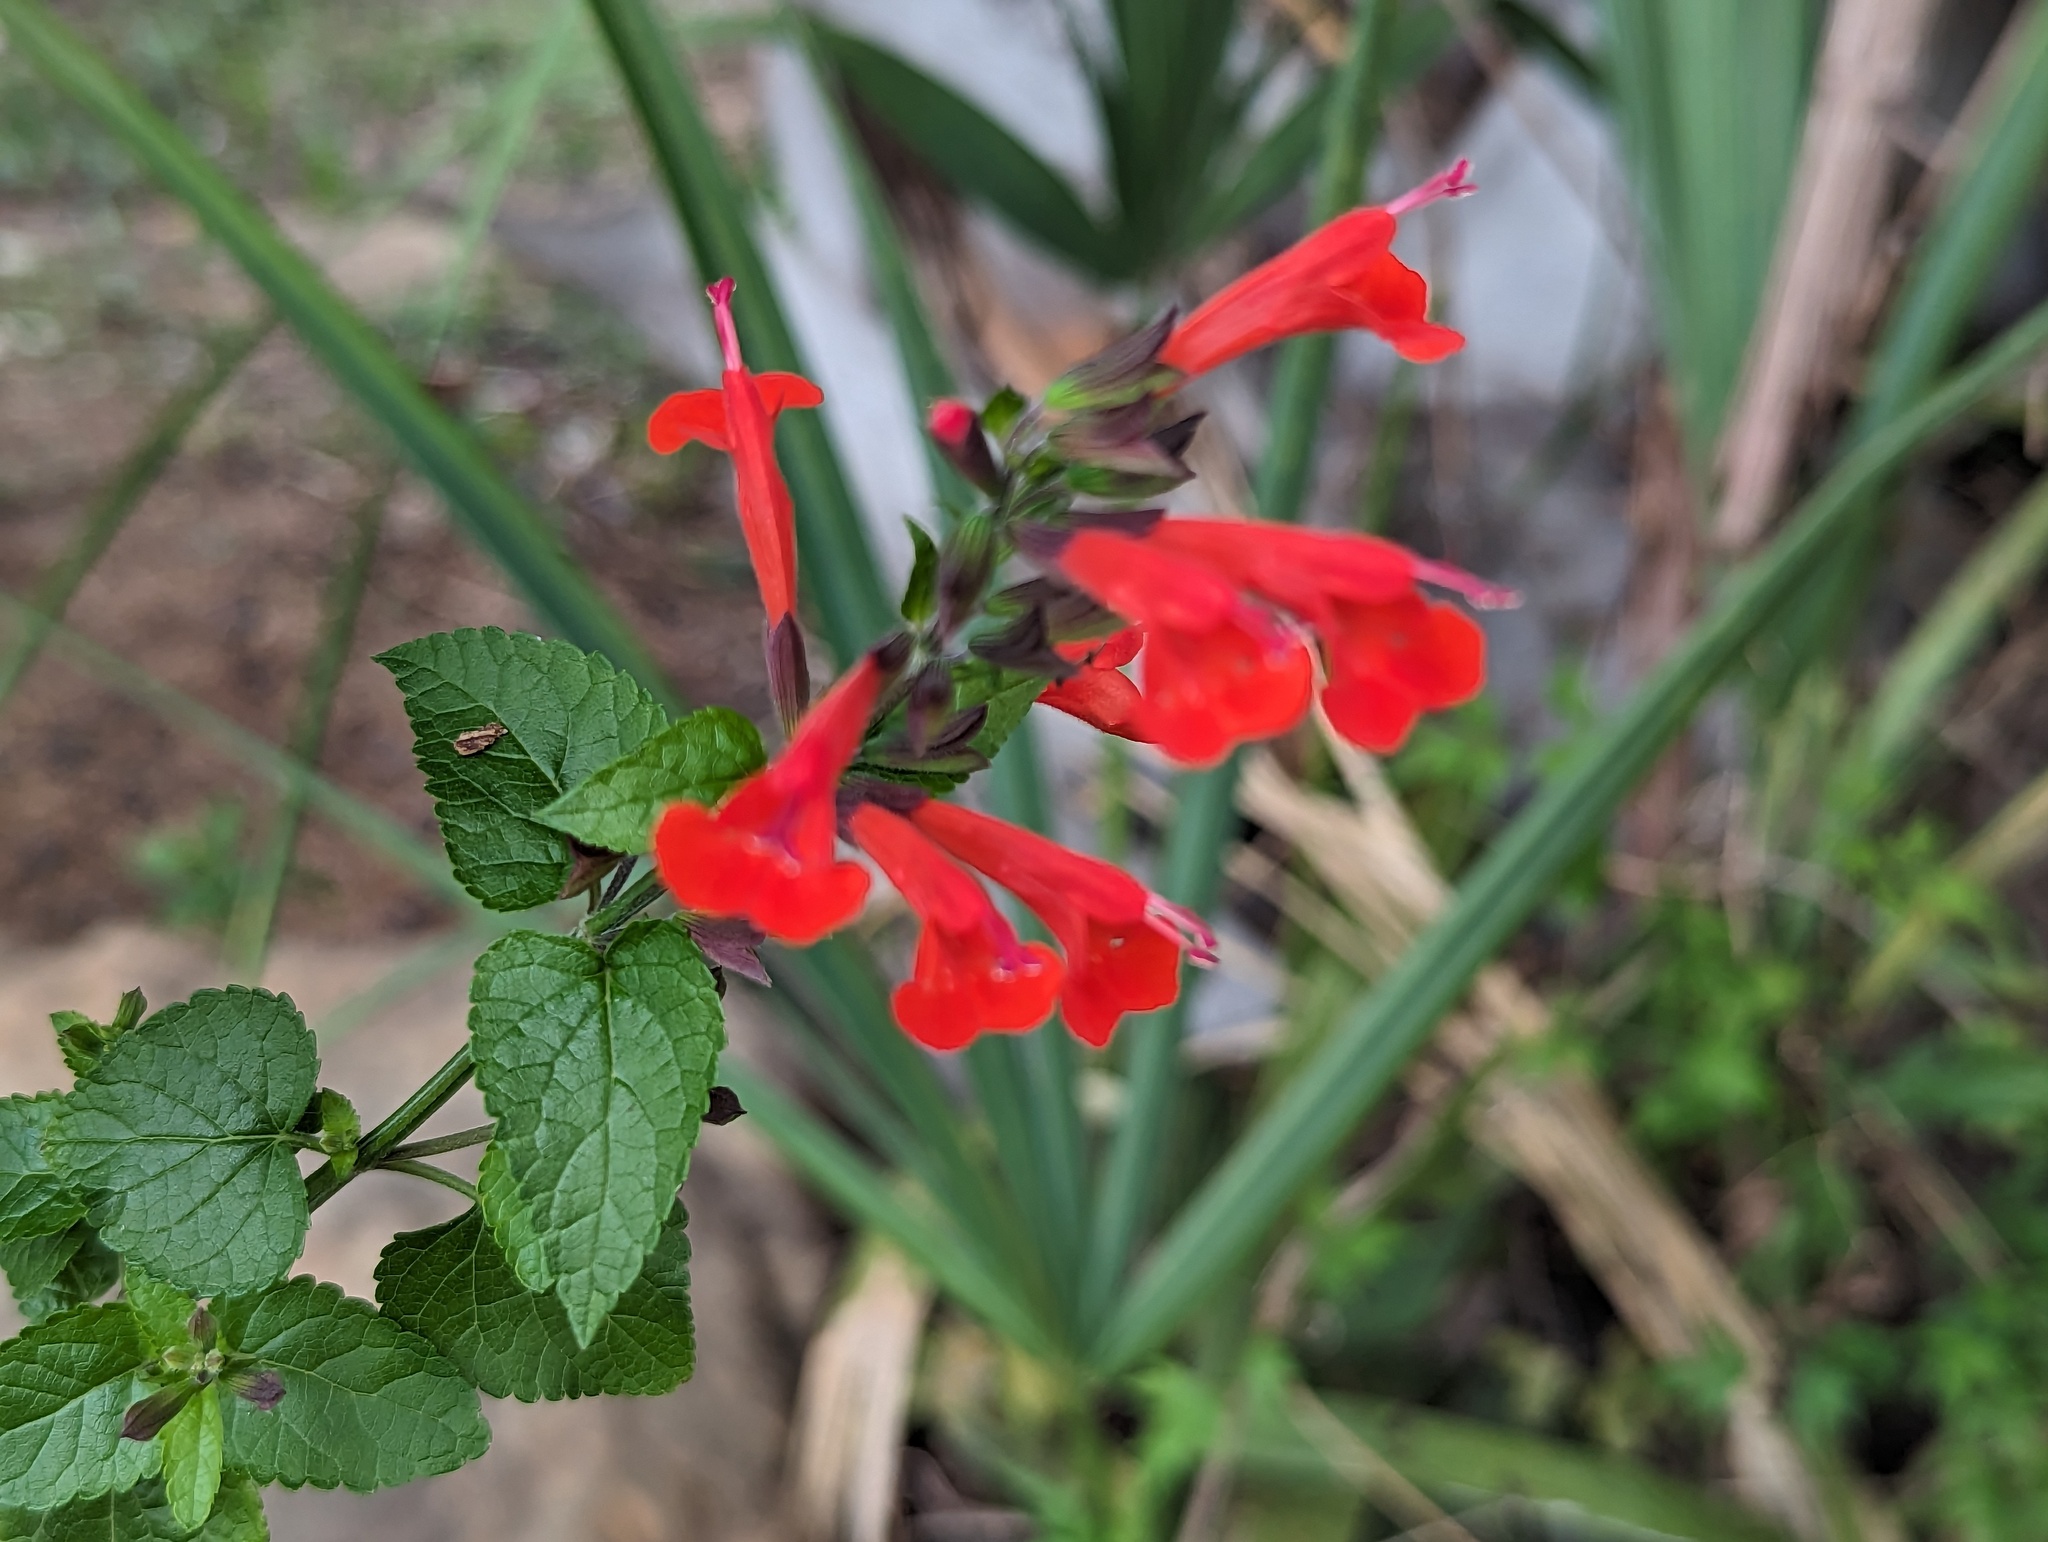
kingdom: Plantae
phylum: Tracheophyta
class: Magnoliopsida
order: Lamiales
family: Lamiaceae
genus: Salvia
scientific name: Salvia coccinea
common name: Blood sage
